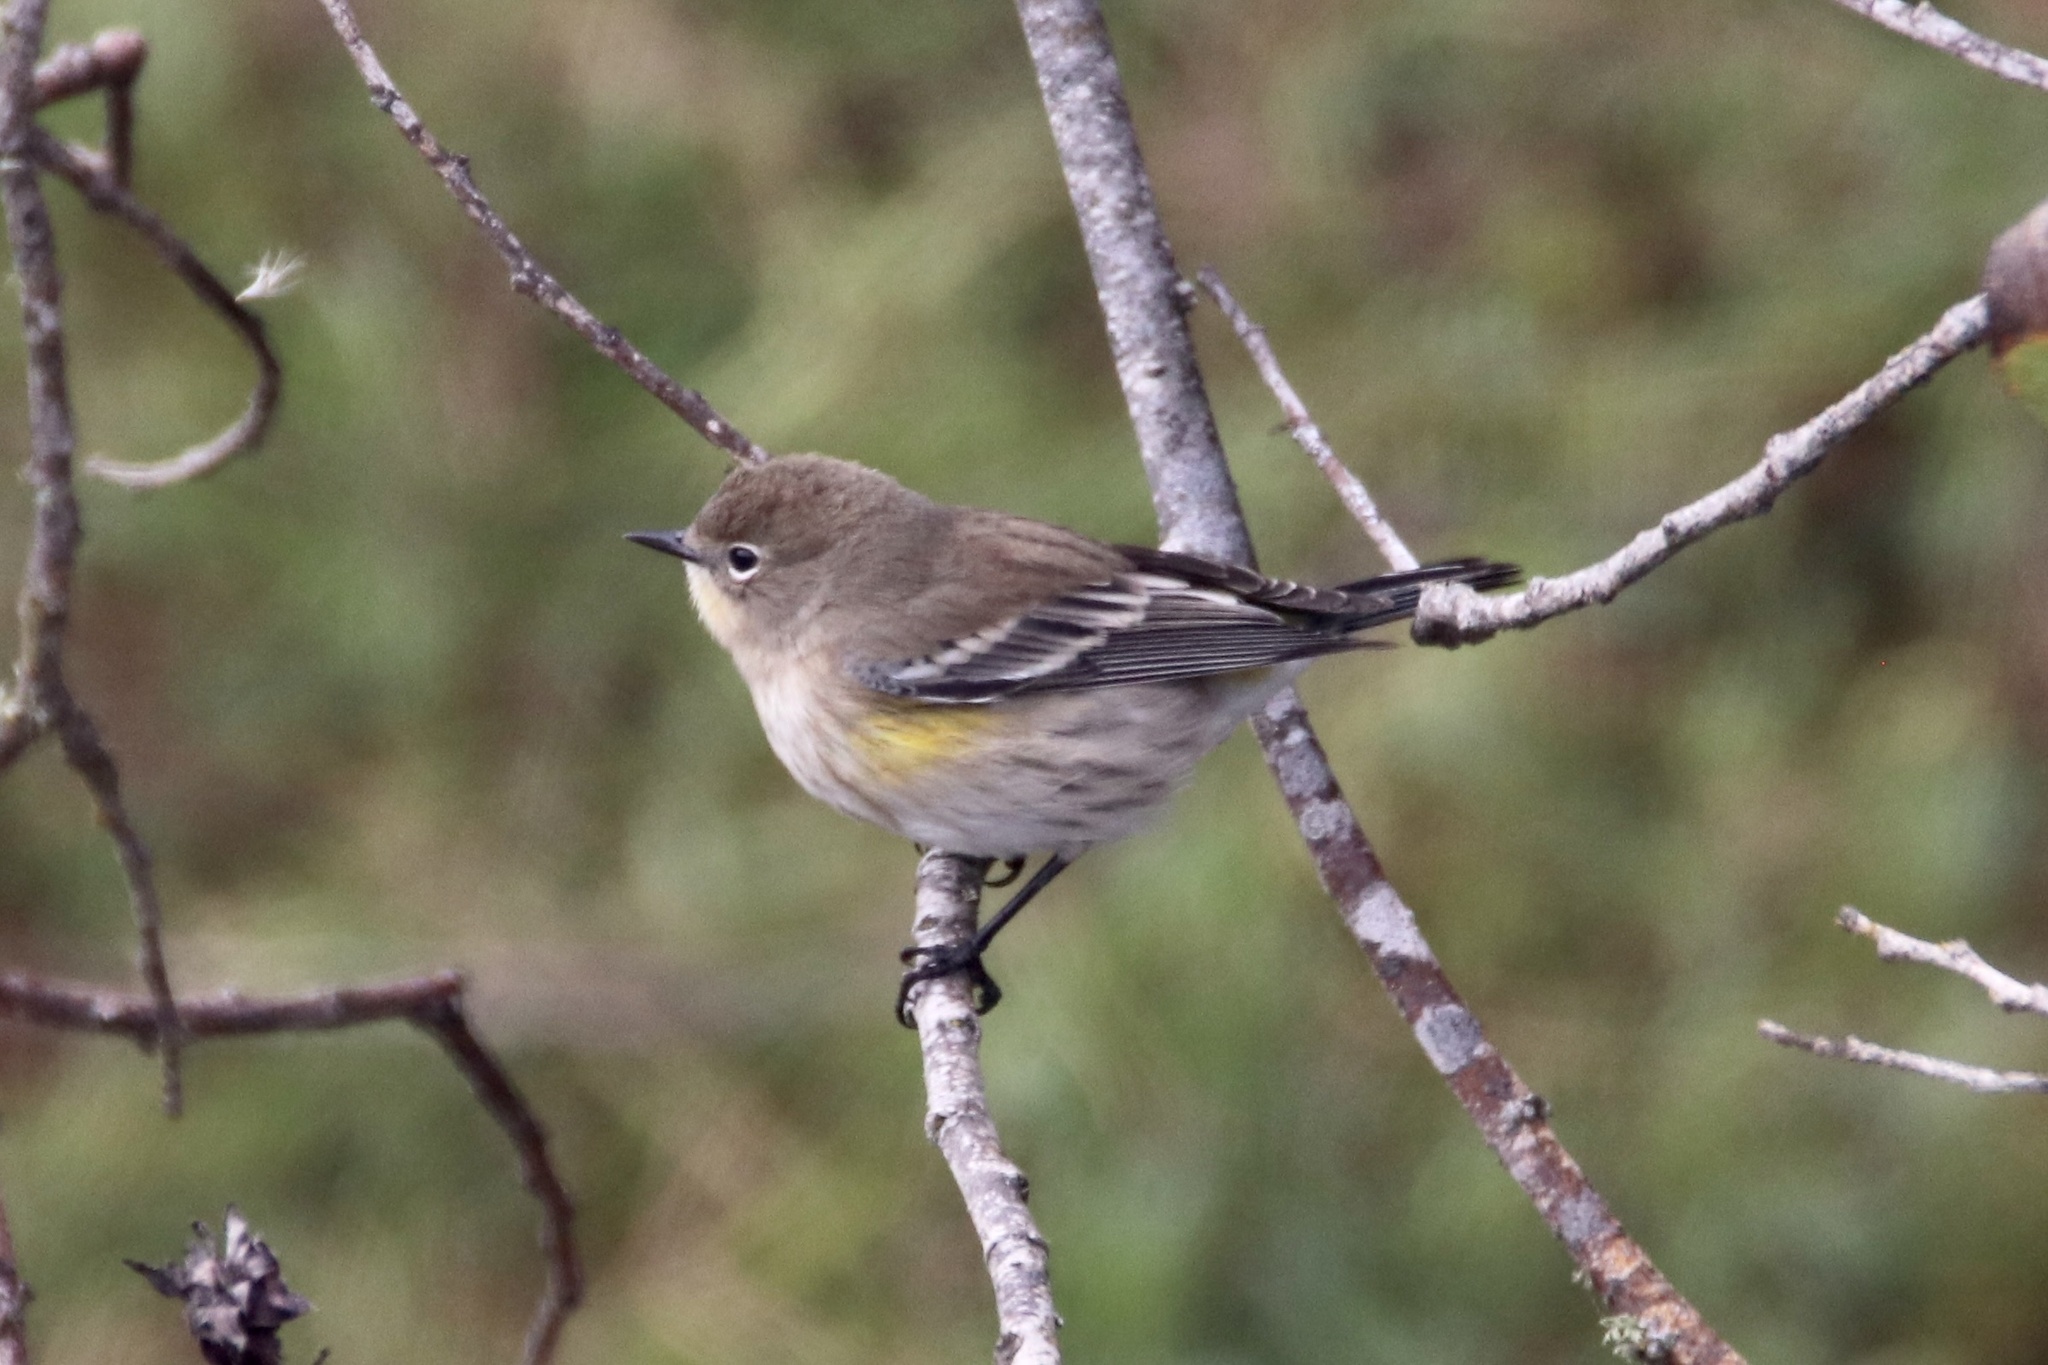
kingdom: Animalia
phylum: Chordata
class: Aves
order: Passeriformes
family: Parulidae
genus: Setophaga
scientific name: Setophaga coronata
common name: Myrtle warbler
